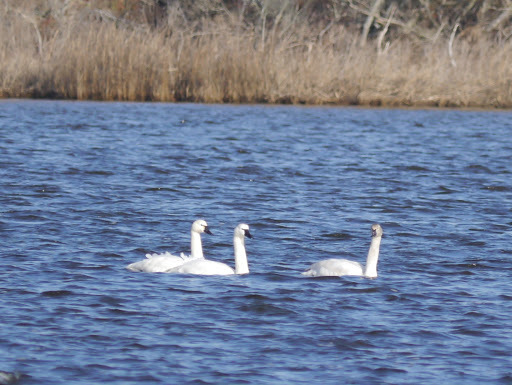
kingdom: Animalia
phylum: Chordata
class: Aves
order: Anseriformes
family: Anatidae
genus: Cygnus
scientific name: Cygnus columbianus
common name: Tundra swan
